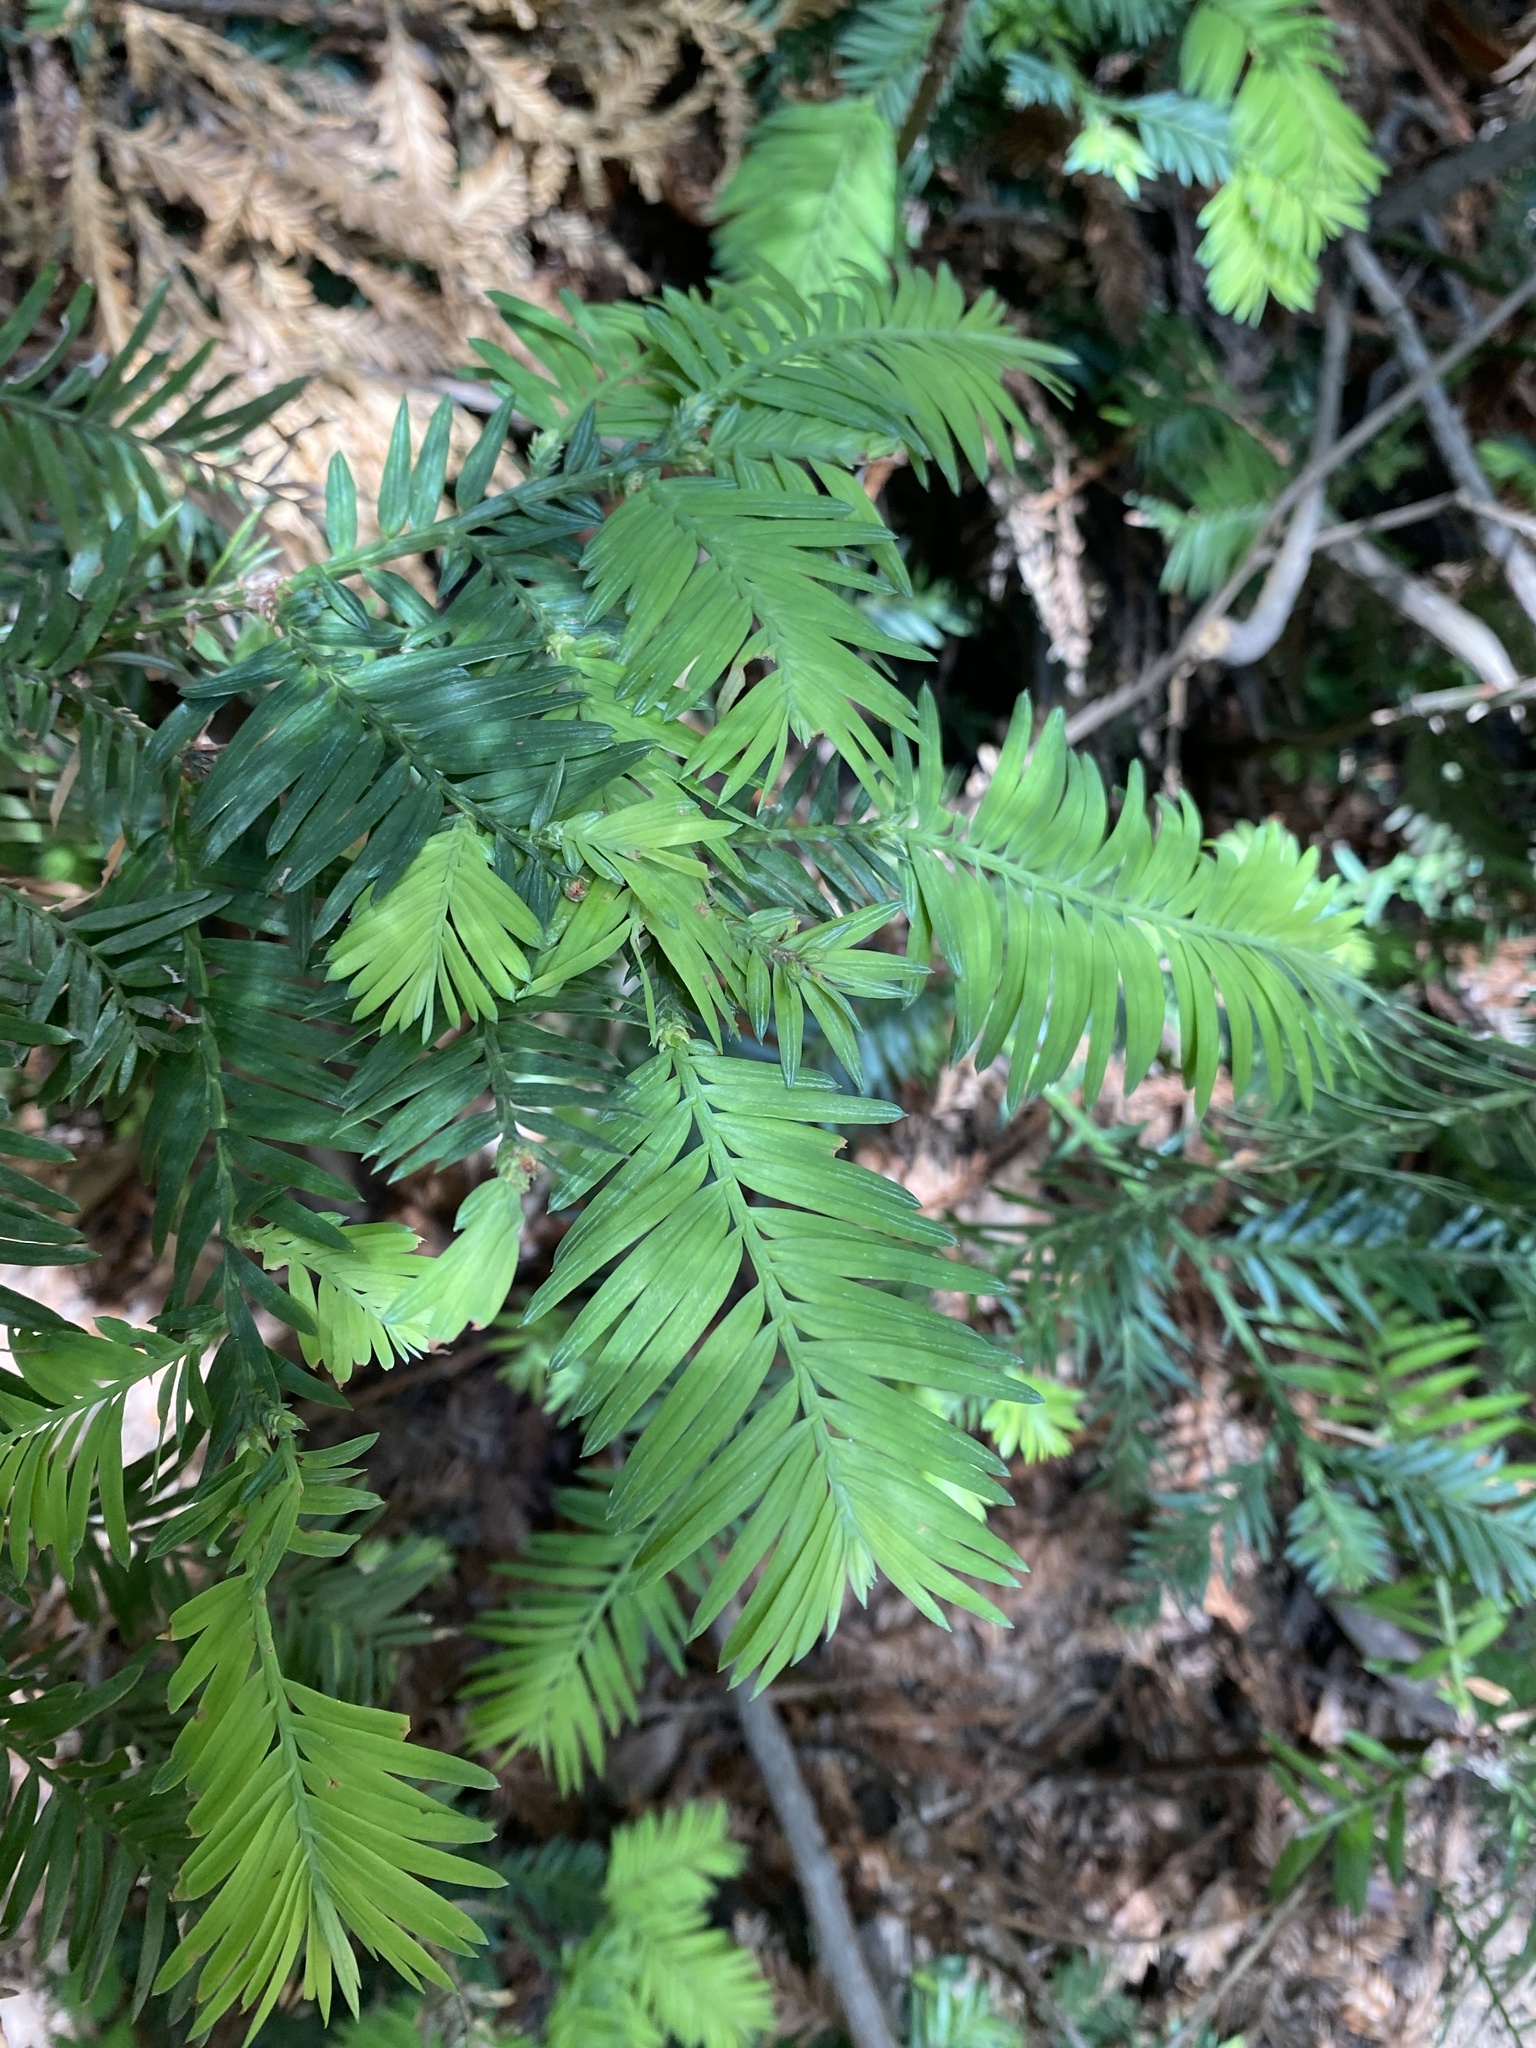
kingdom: Plantae
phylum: Tracheophyta
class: Pinopsida
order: Pinales
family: Cupressaceae
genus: Sequoia
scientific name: Sequoia sempervirens
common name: Coast redwood
